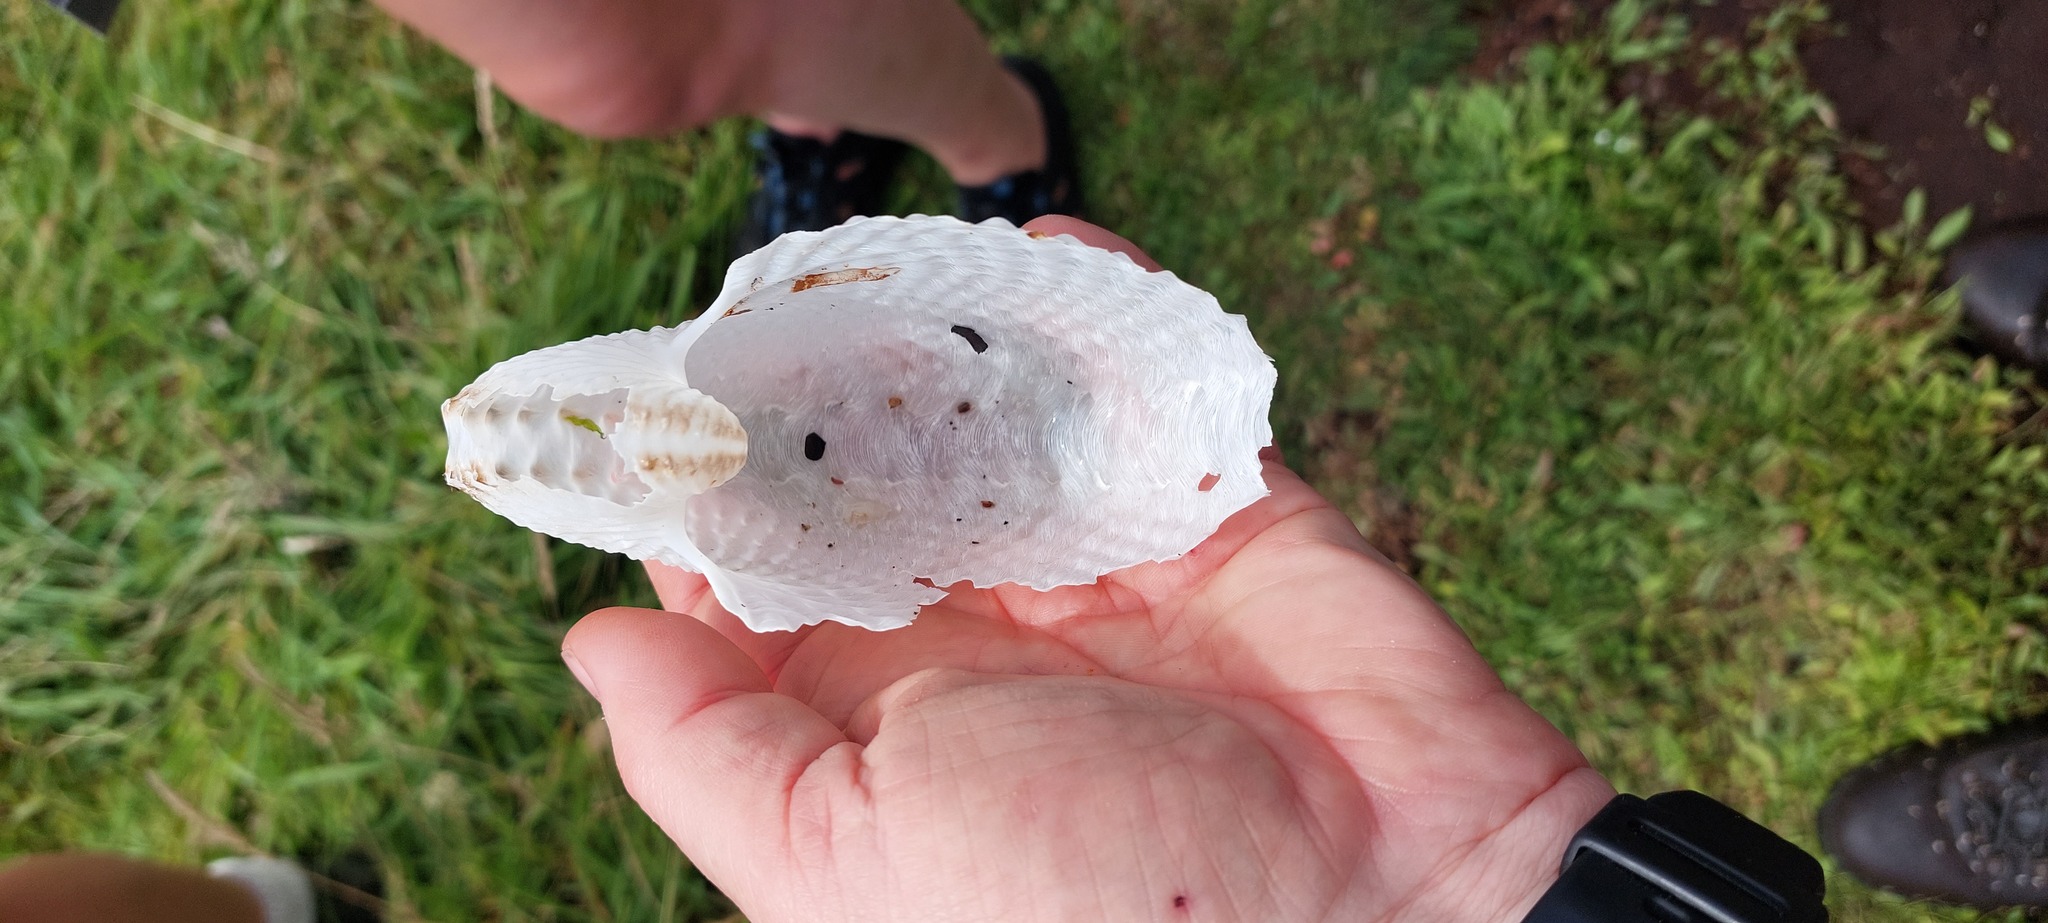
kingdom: Animalia
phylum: Mollusca
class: Cephalopoda
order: Octopoda
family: Argonautidae
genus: Argonauta
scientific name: Argonauta nodosus
